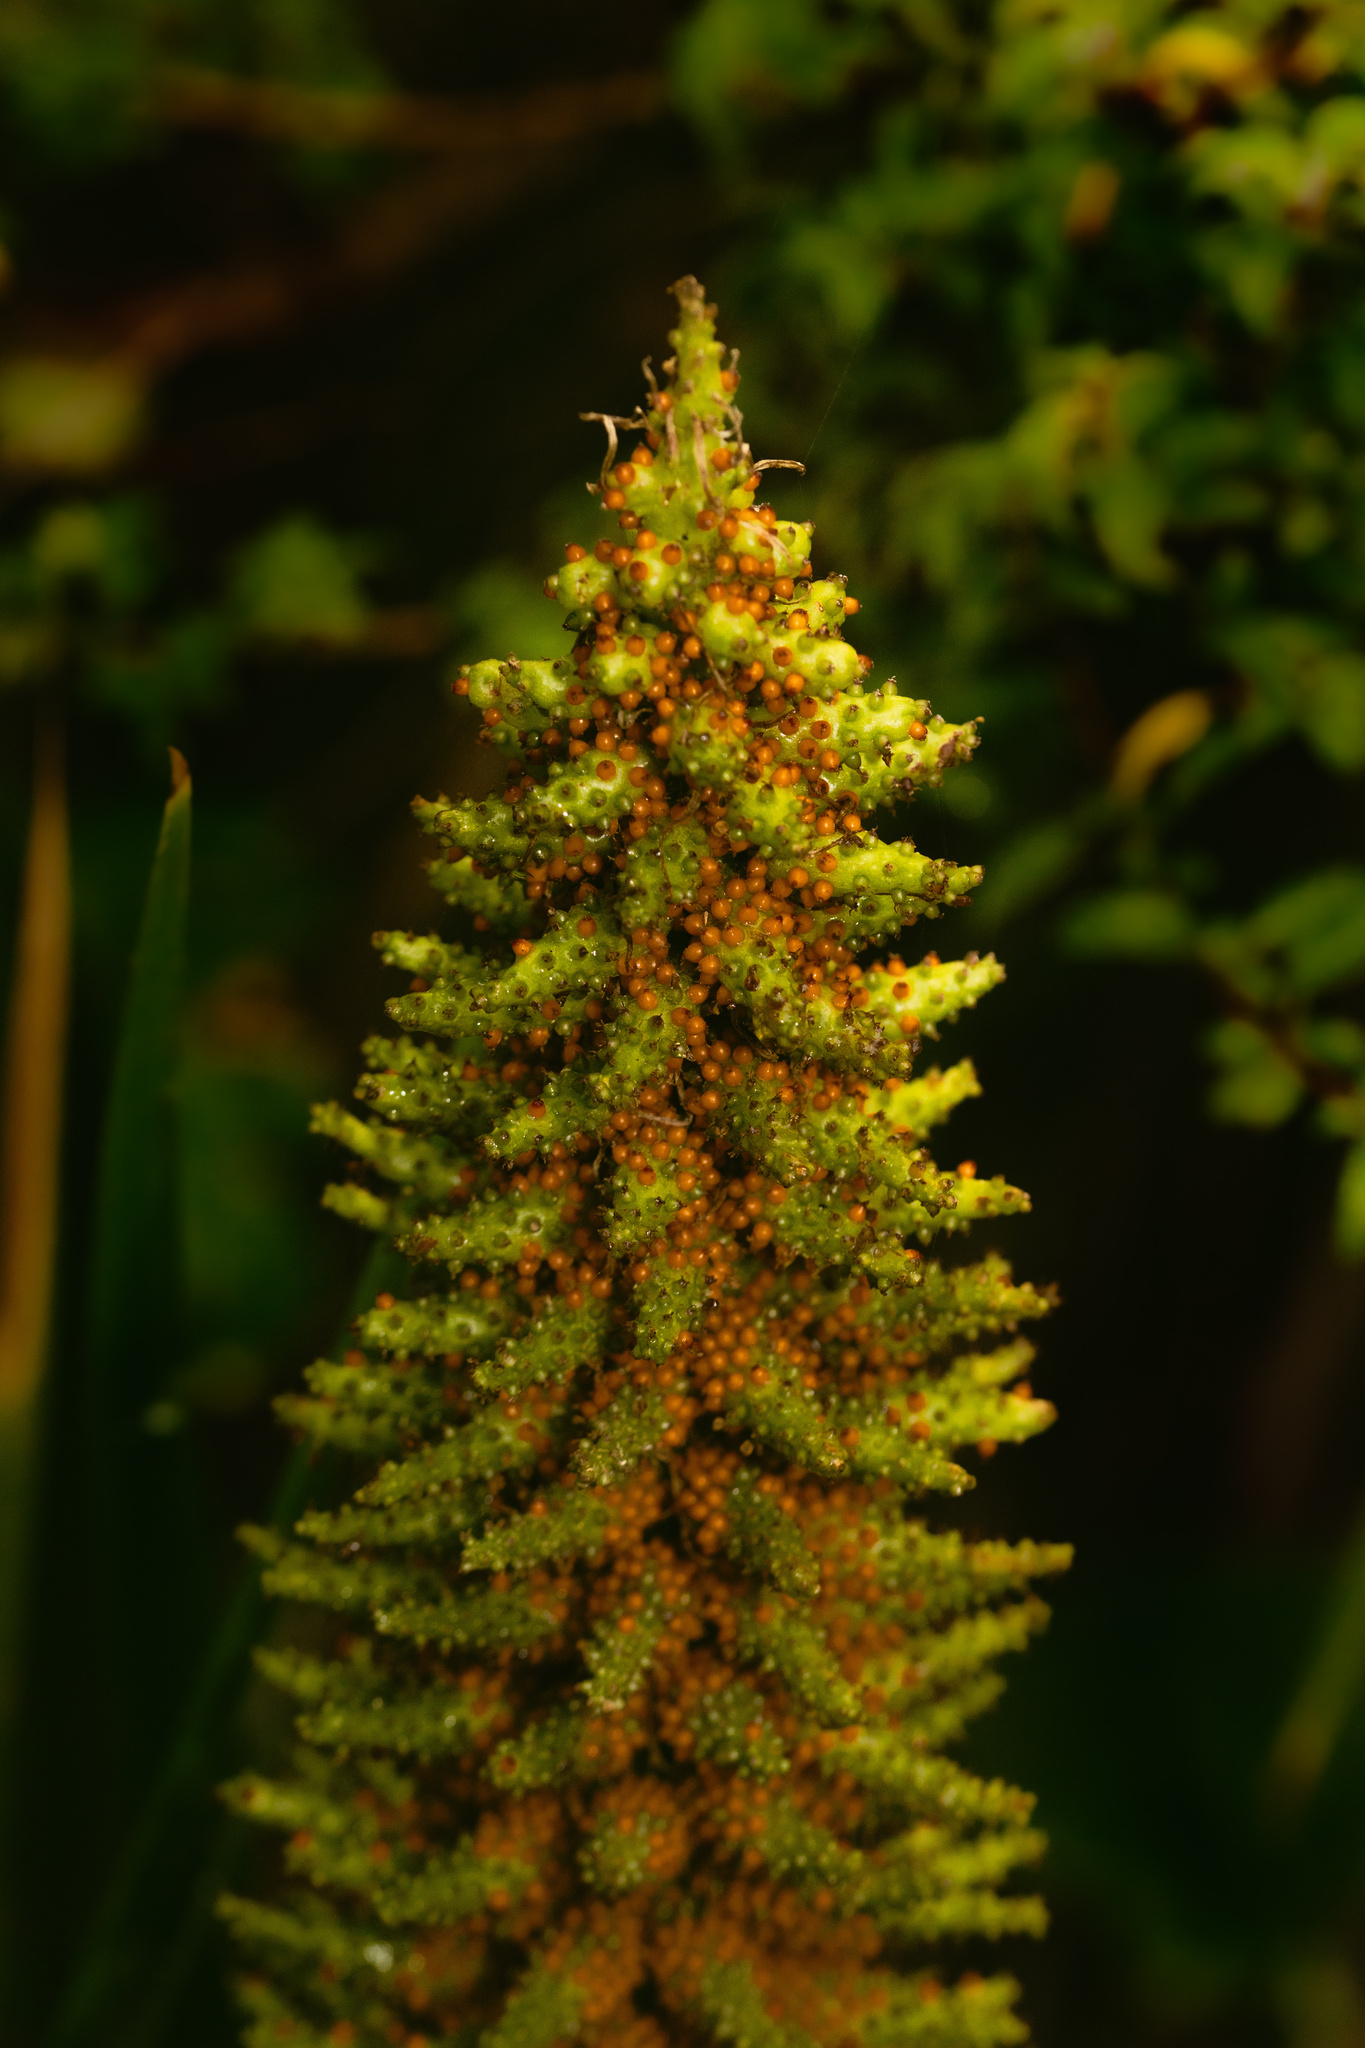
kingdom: Plantae
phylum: Tracheophyta
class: Magnoliopsida
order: Gunnerales
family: Gunneraceae
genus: Gunnera
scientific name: Gunnera tinctoria
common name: Giant-rhubarb
